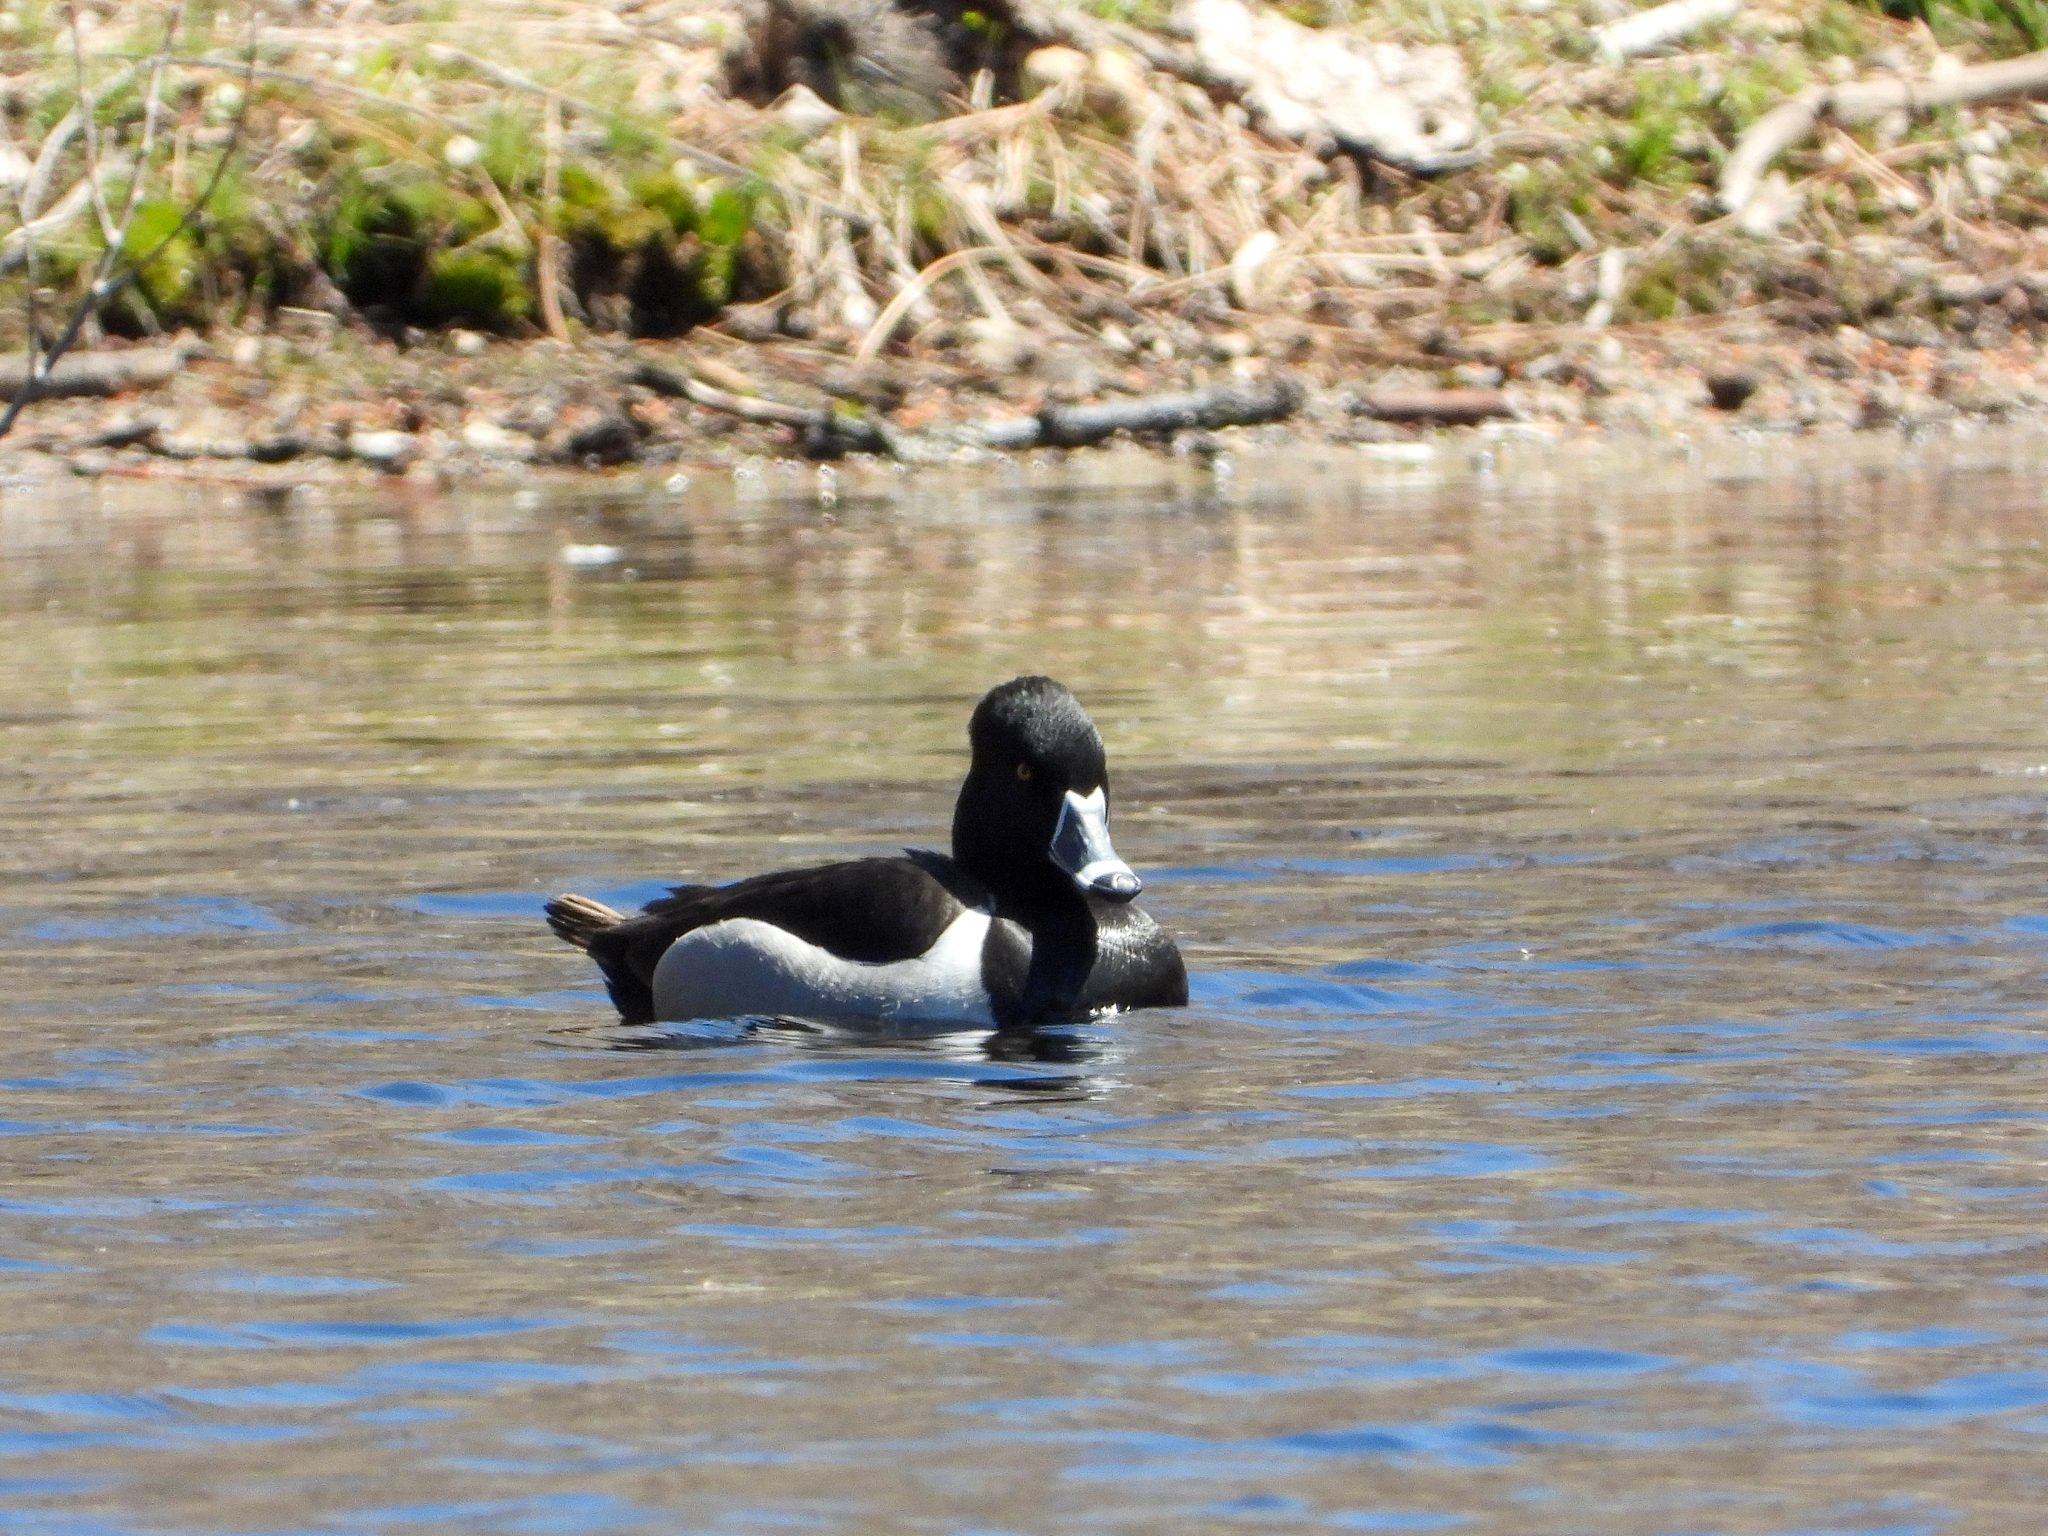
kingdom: Animalia
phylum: Chordata
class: Aves
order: Anseriformes
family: Anatidae
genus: Aythya
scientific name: Aythya collaris
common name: Ring-necked duck
